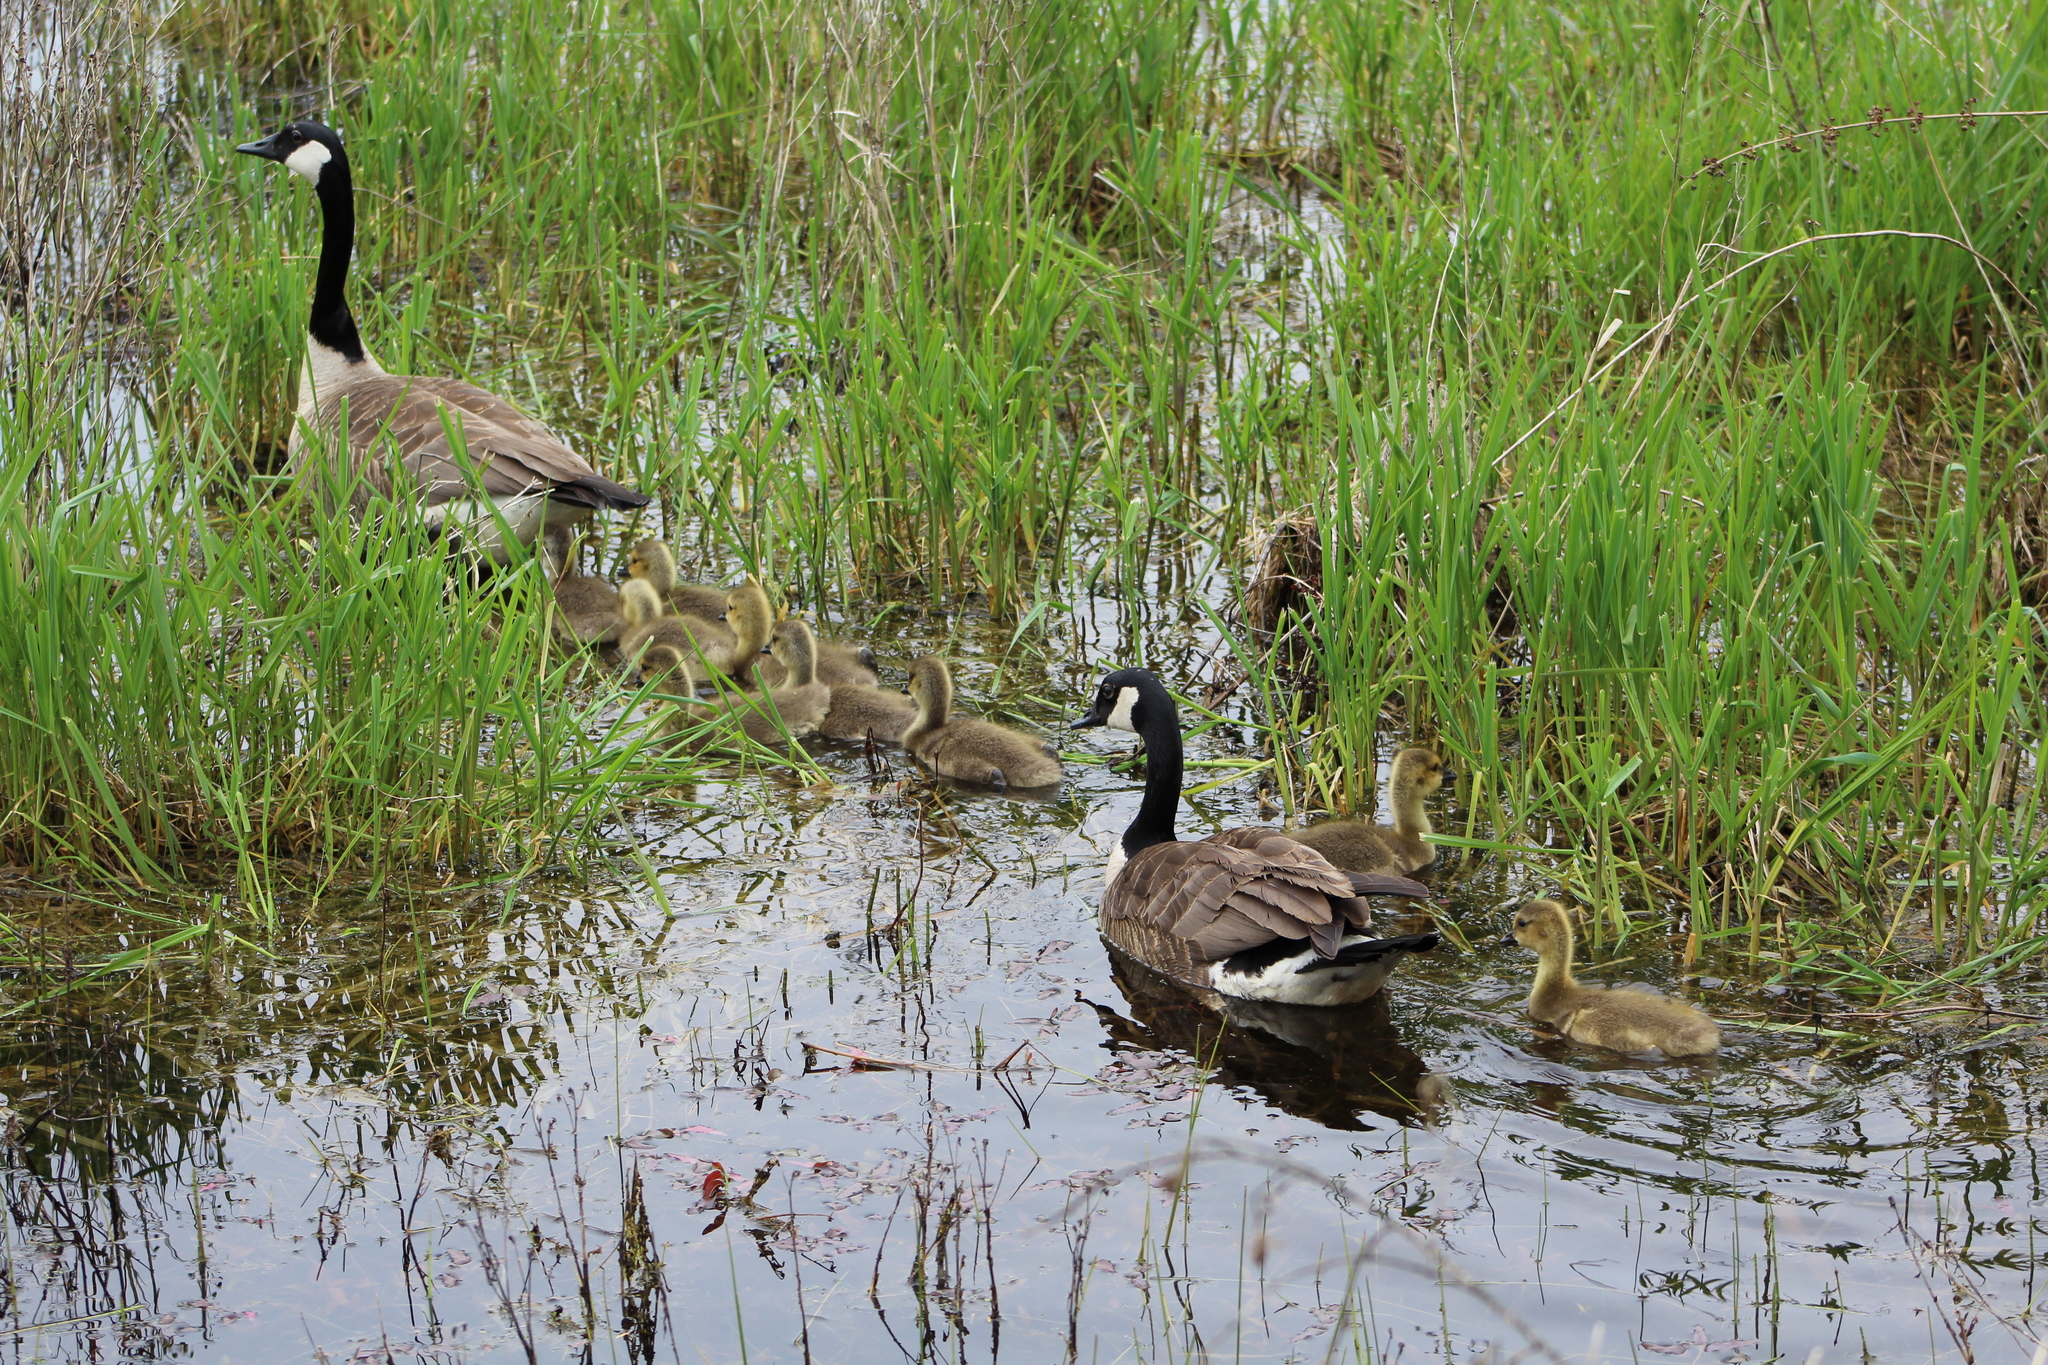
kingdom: Animalia
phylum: Chordata
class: Aves
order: Anseriformes
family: Anatidae
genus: Branta
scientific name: Branta canadensis
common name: Canada goose
